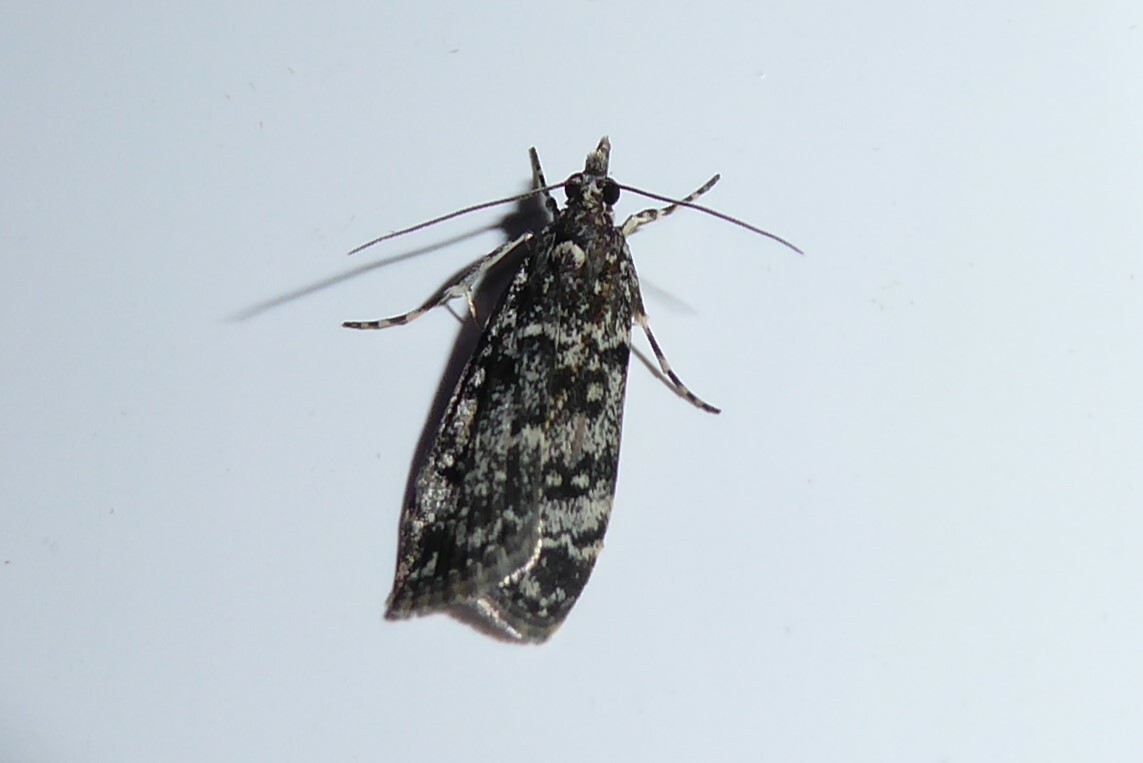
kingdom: Animalia
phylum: Arthropoda
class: Insecta
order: Lepidoptera
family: Crambidae
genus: Eudonia
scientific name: Eudonia philerga
